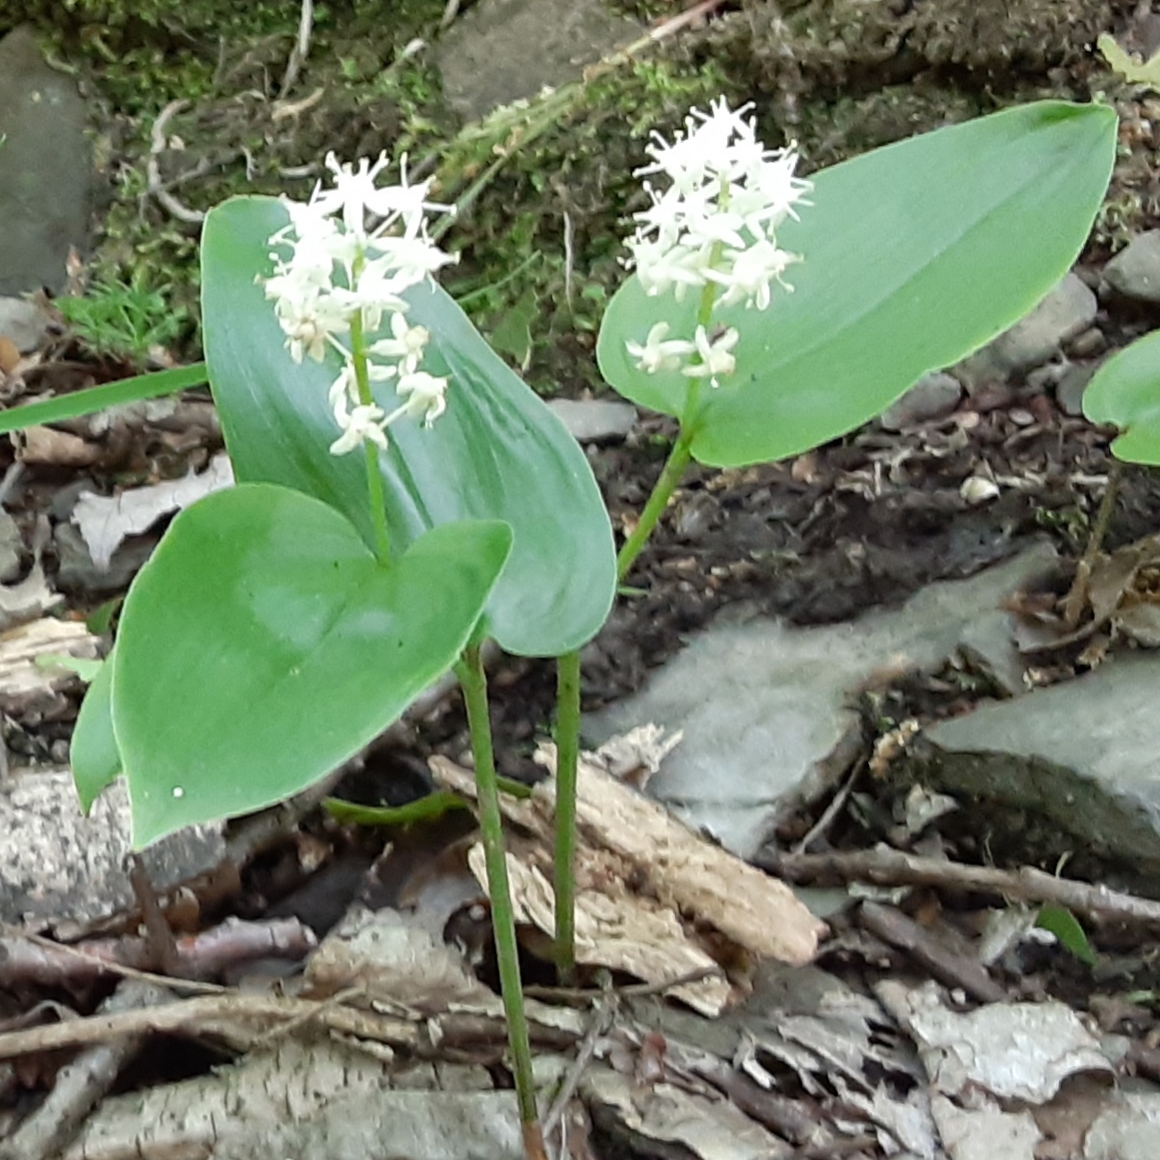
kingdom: Plantae
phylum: Tracheophyta
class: Liliopsida
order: Asparagales
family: Asparagaceae
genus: Maianthemum
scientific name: Maianthemum canadense
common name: False lily-of-the-valley
